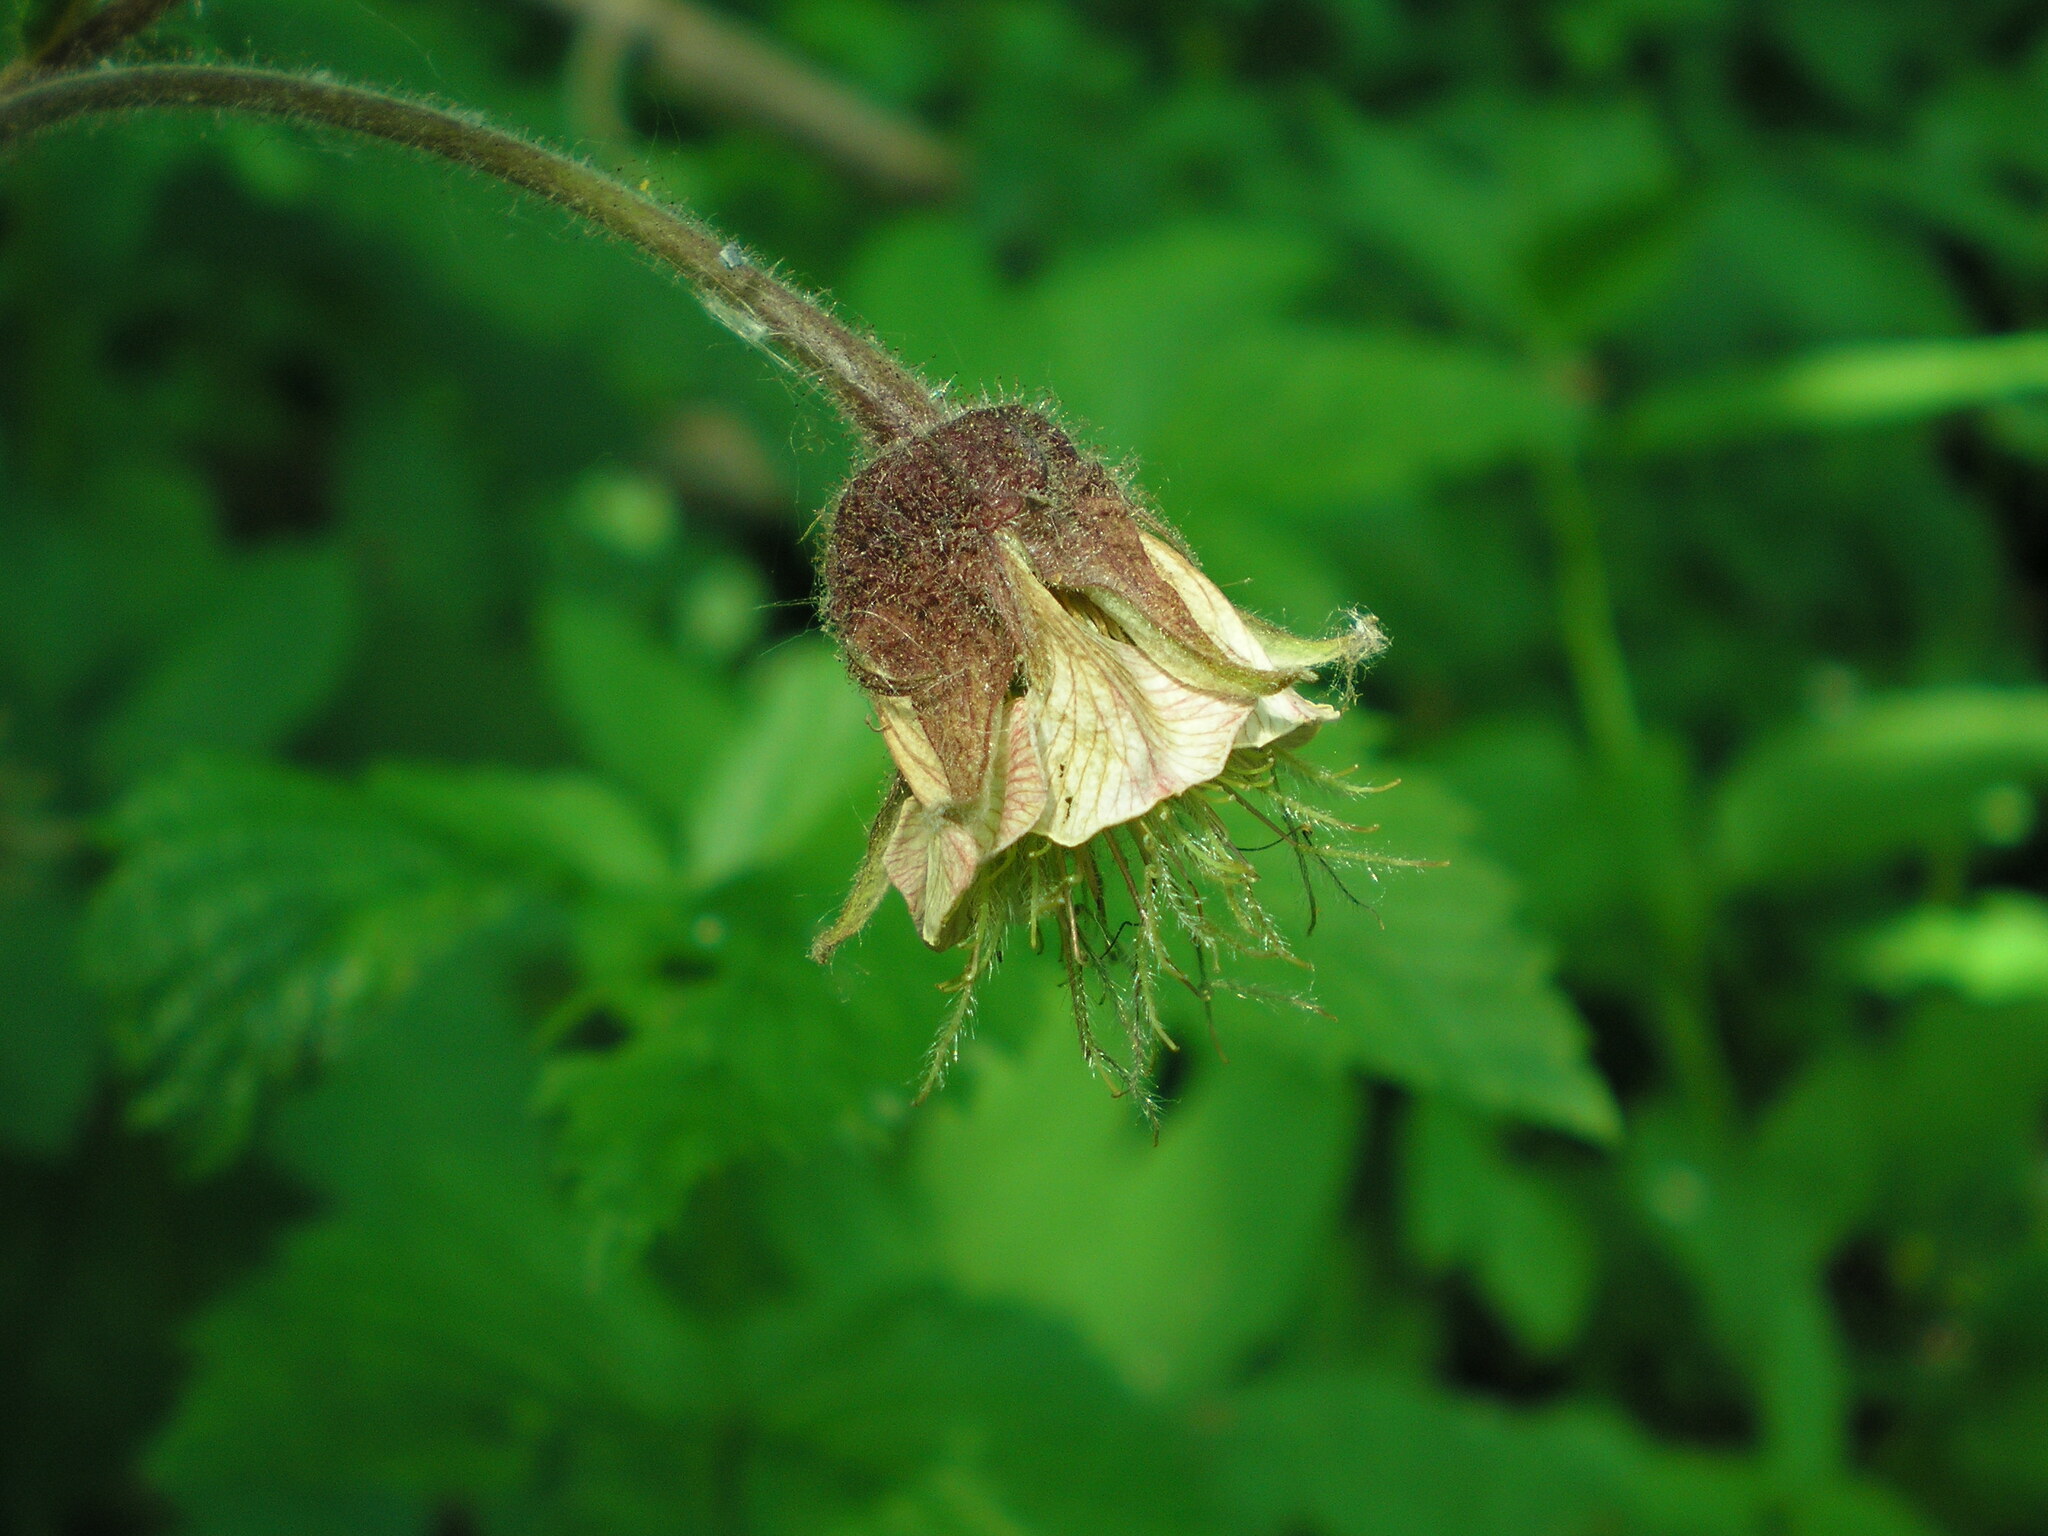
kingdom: Plantae
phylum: Tracheophyta
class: Magnoliopsida
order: Rosales
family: Rosaceae
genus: Geum
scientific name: Geum rivale
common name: Water avens
